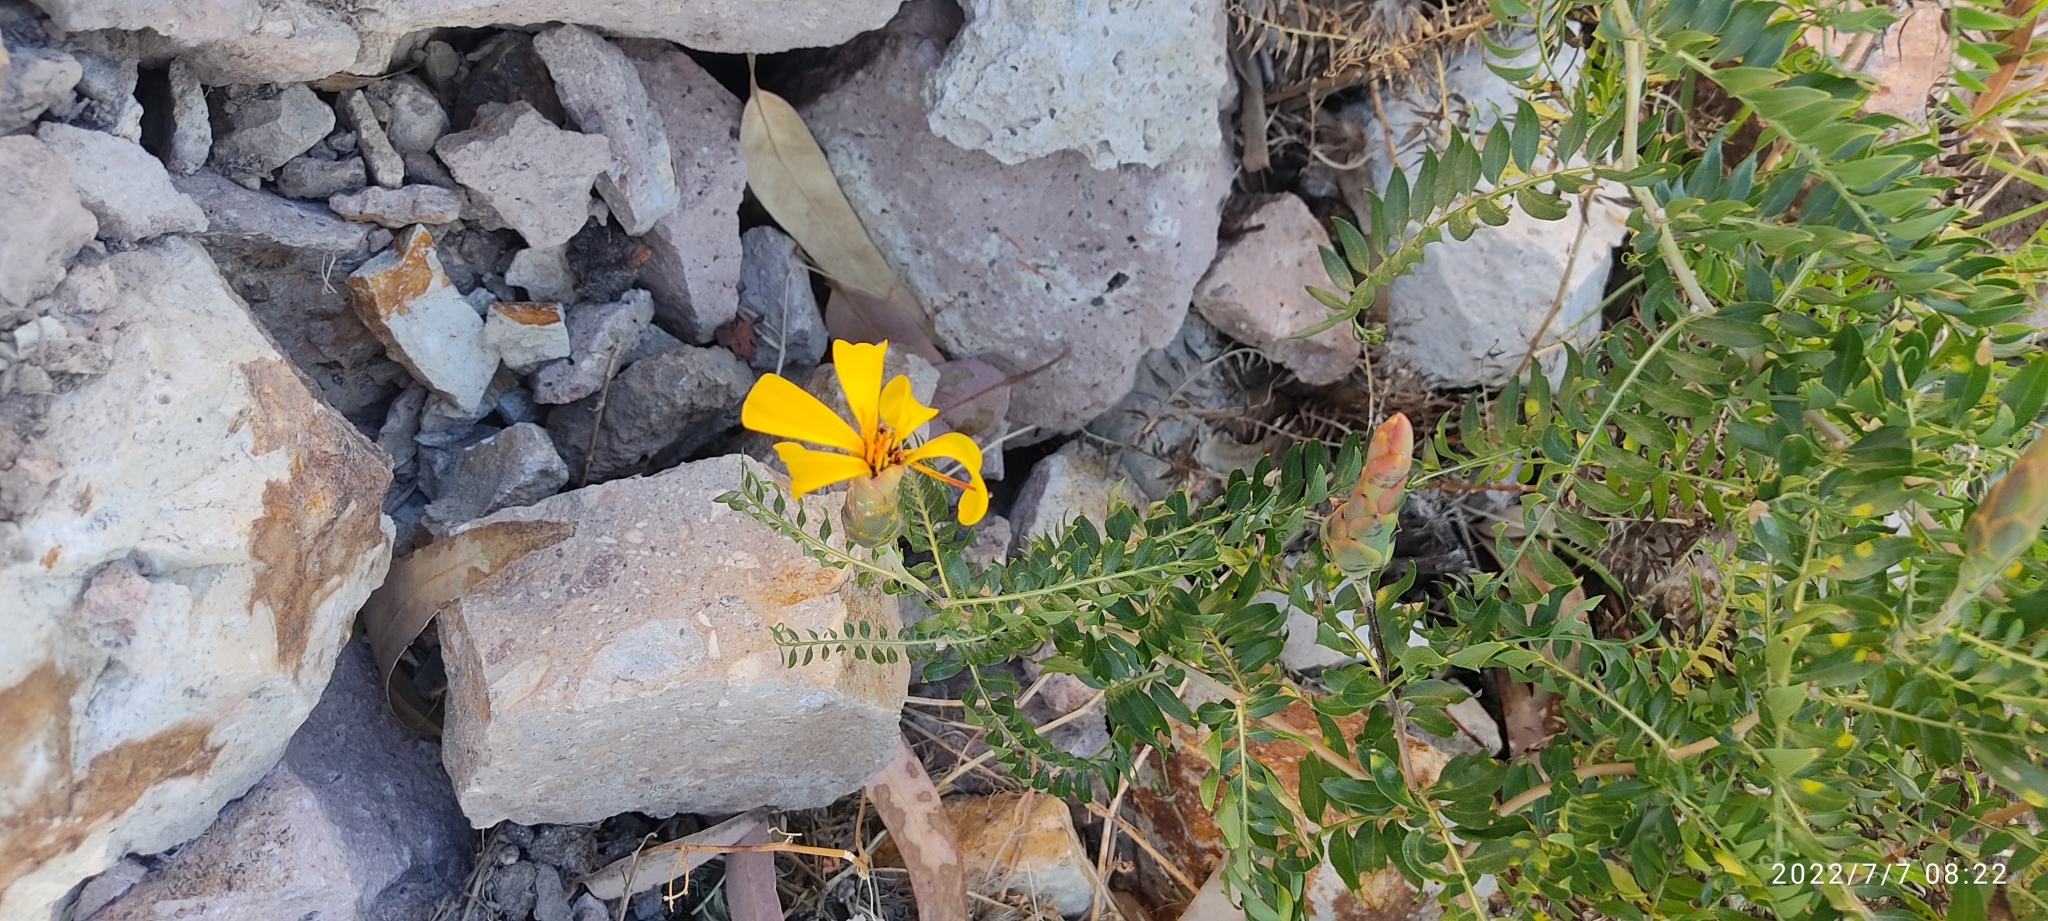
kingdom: Plantae
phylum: Tracheophyta
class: Magnoliopsida
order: Asterales
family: Asteraceae
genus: Mutisia
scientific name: Mutisia acuminata
